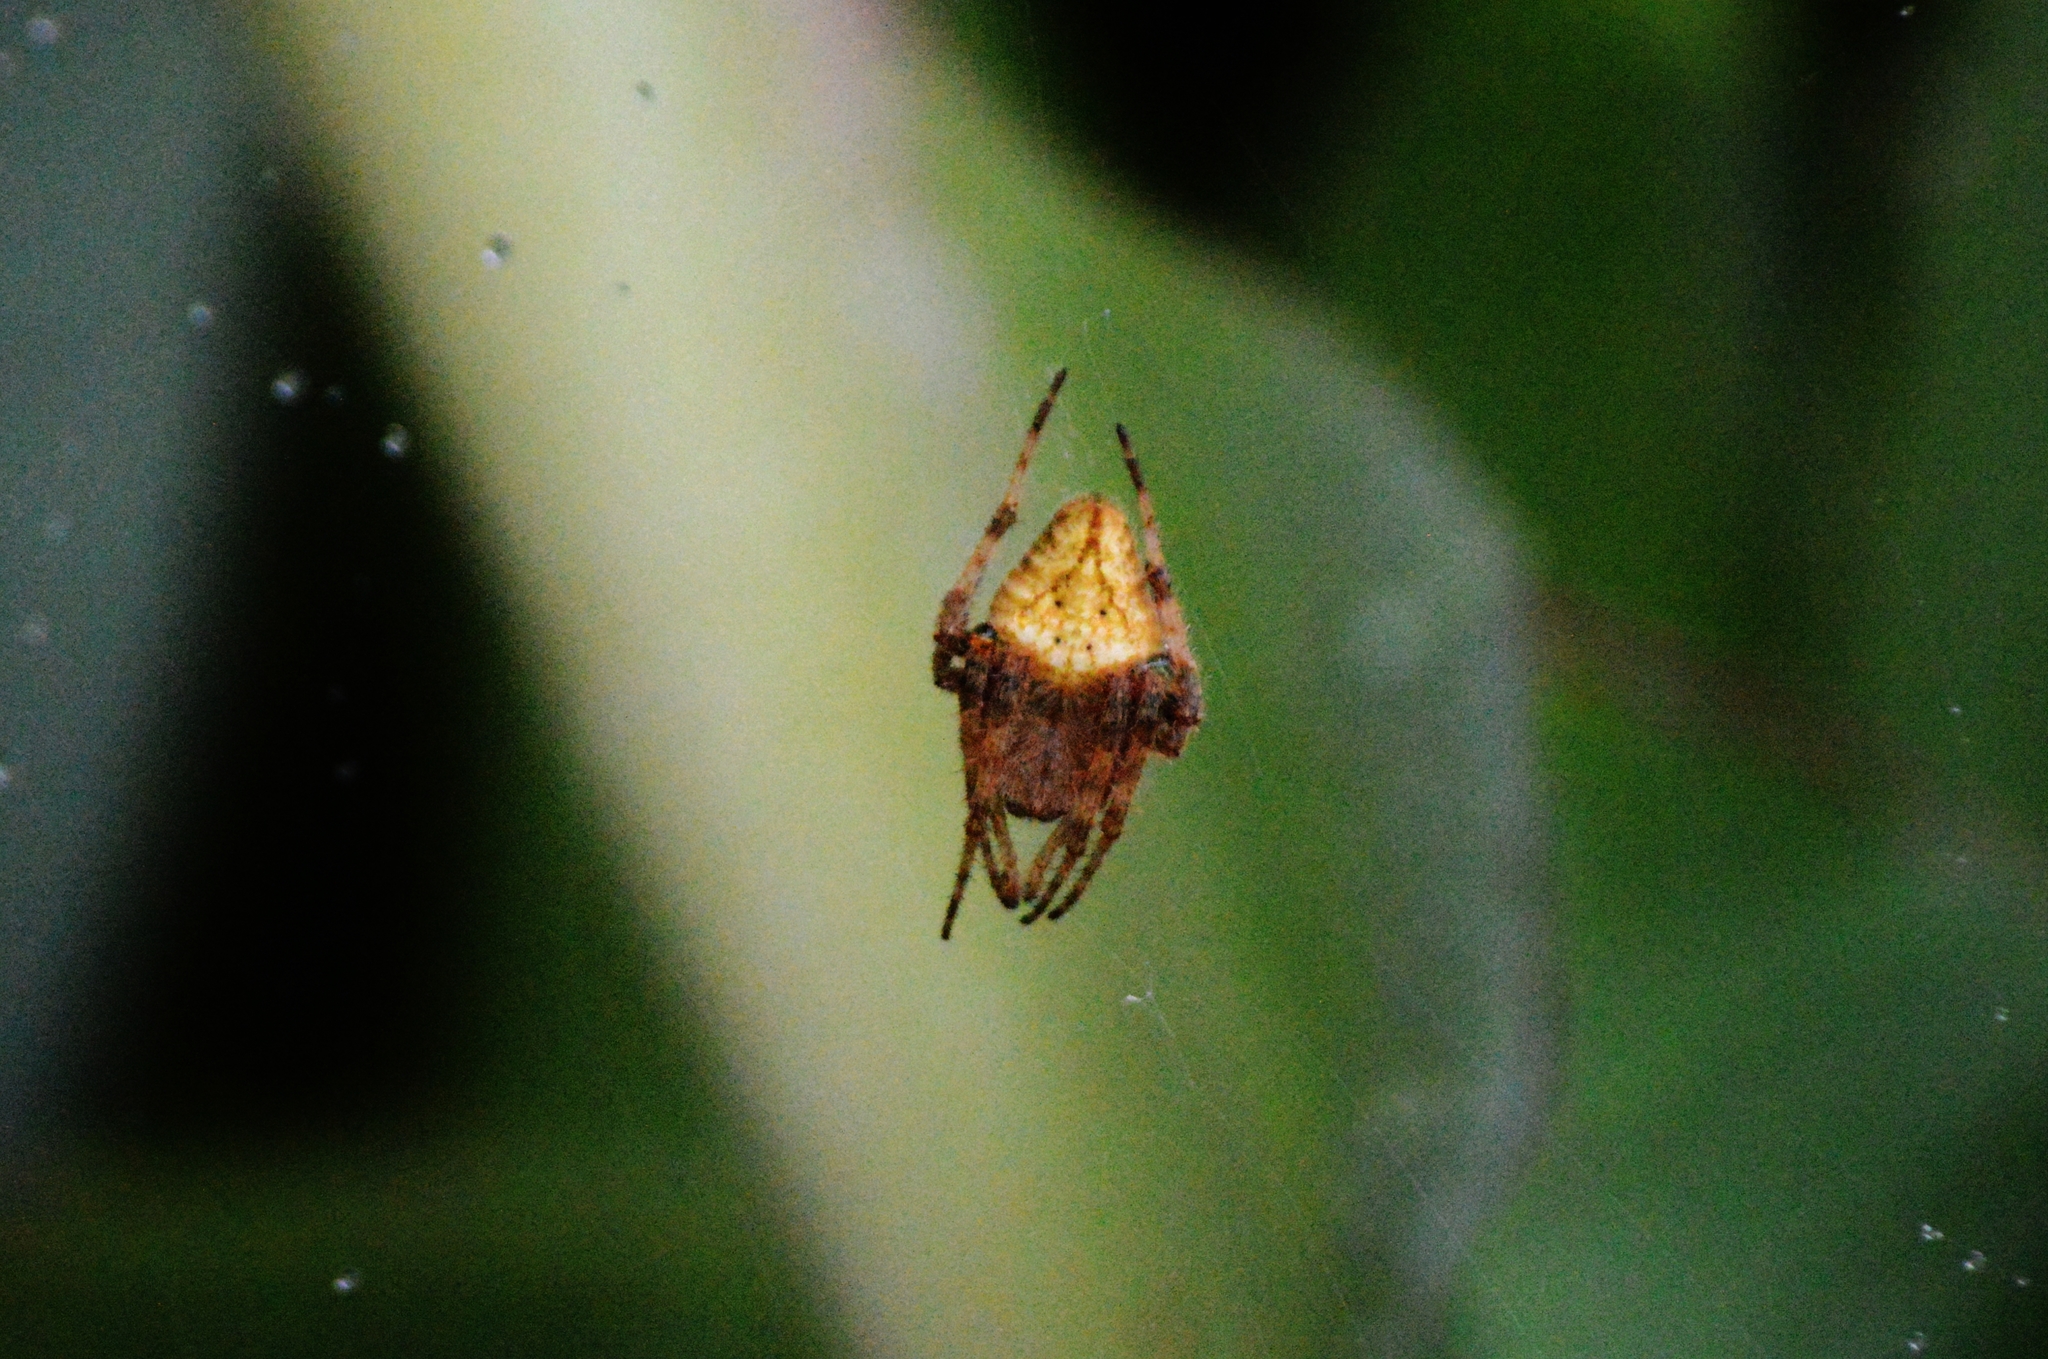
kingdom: Animalia
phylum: Arthropoda
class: Arachnida
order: Araneae
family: Araneidae
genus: Eriophora
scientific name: Eriophora edax
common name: Orb weavers
